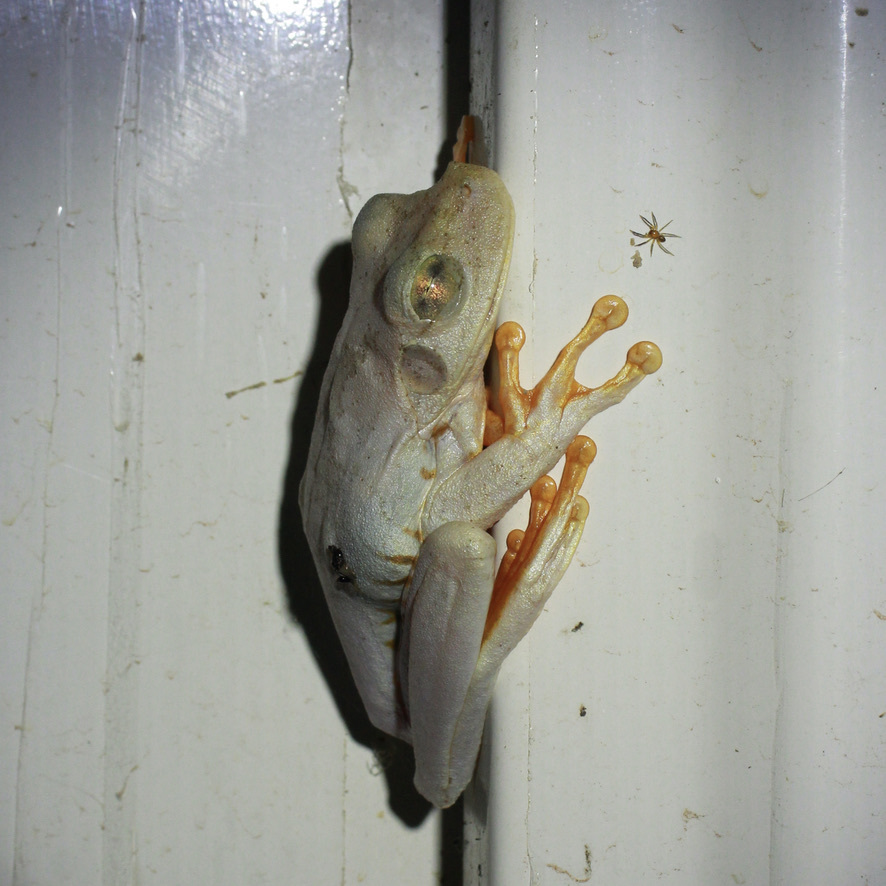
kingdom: Animalia
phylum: Chordata
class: Amphibia
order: Anura
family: Hylidae
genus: Boana
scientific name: Boana platanera
